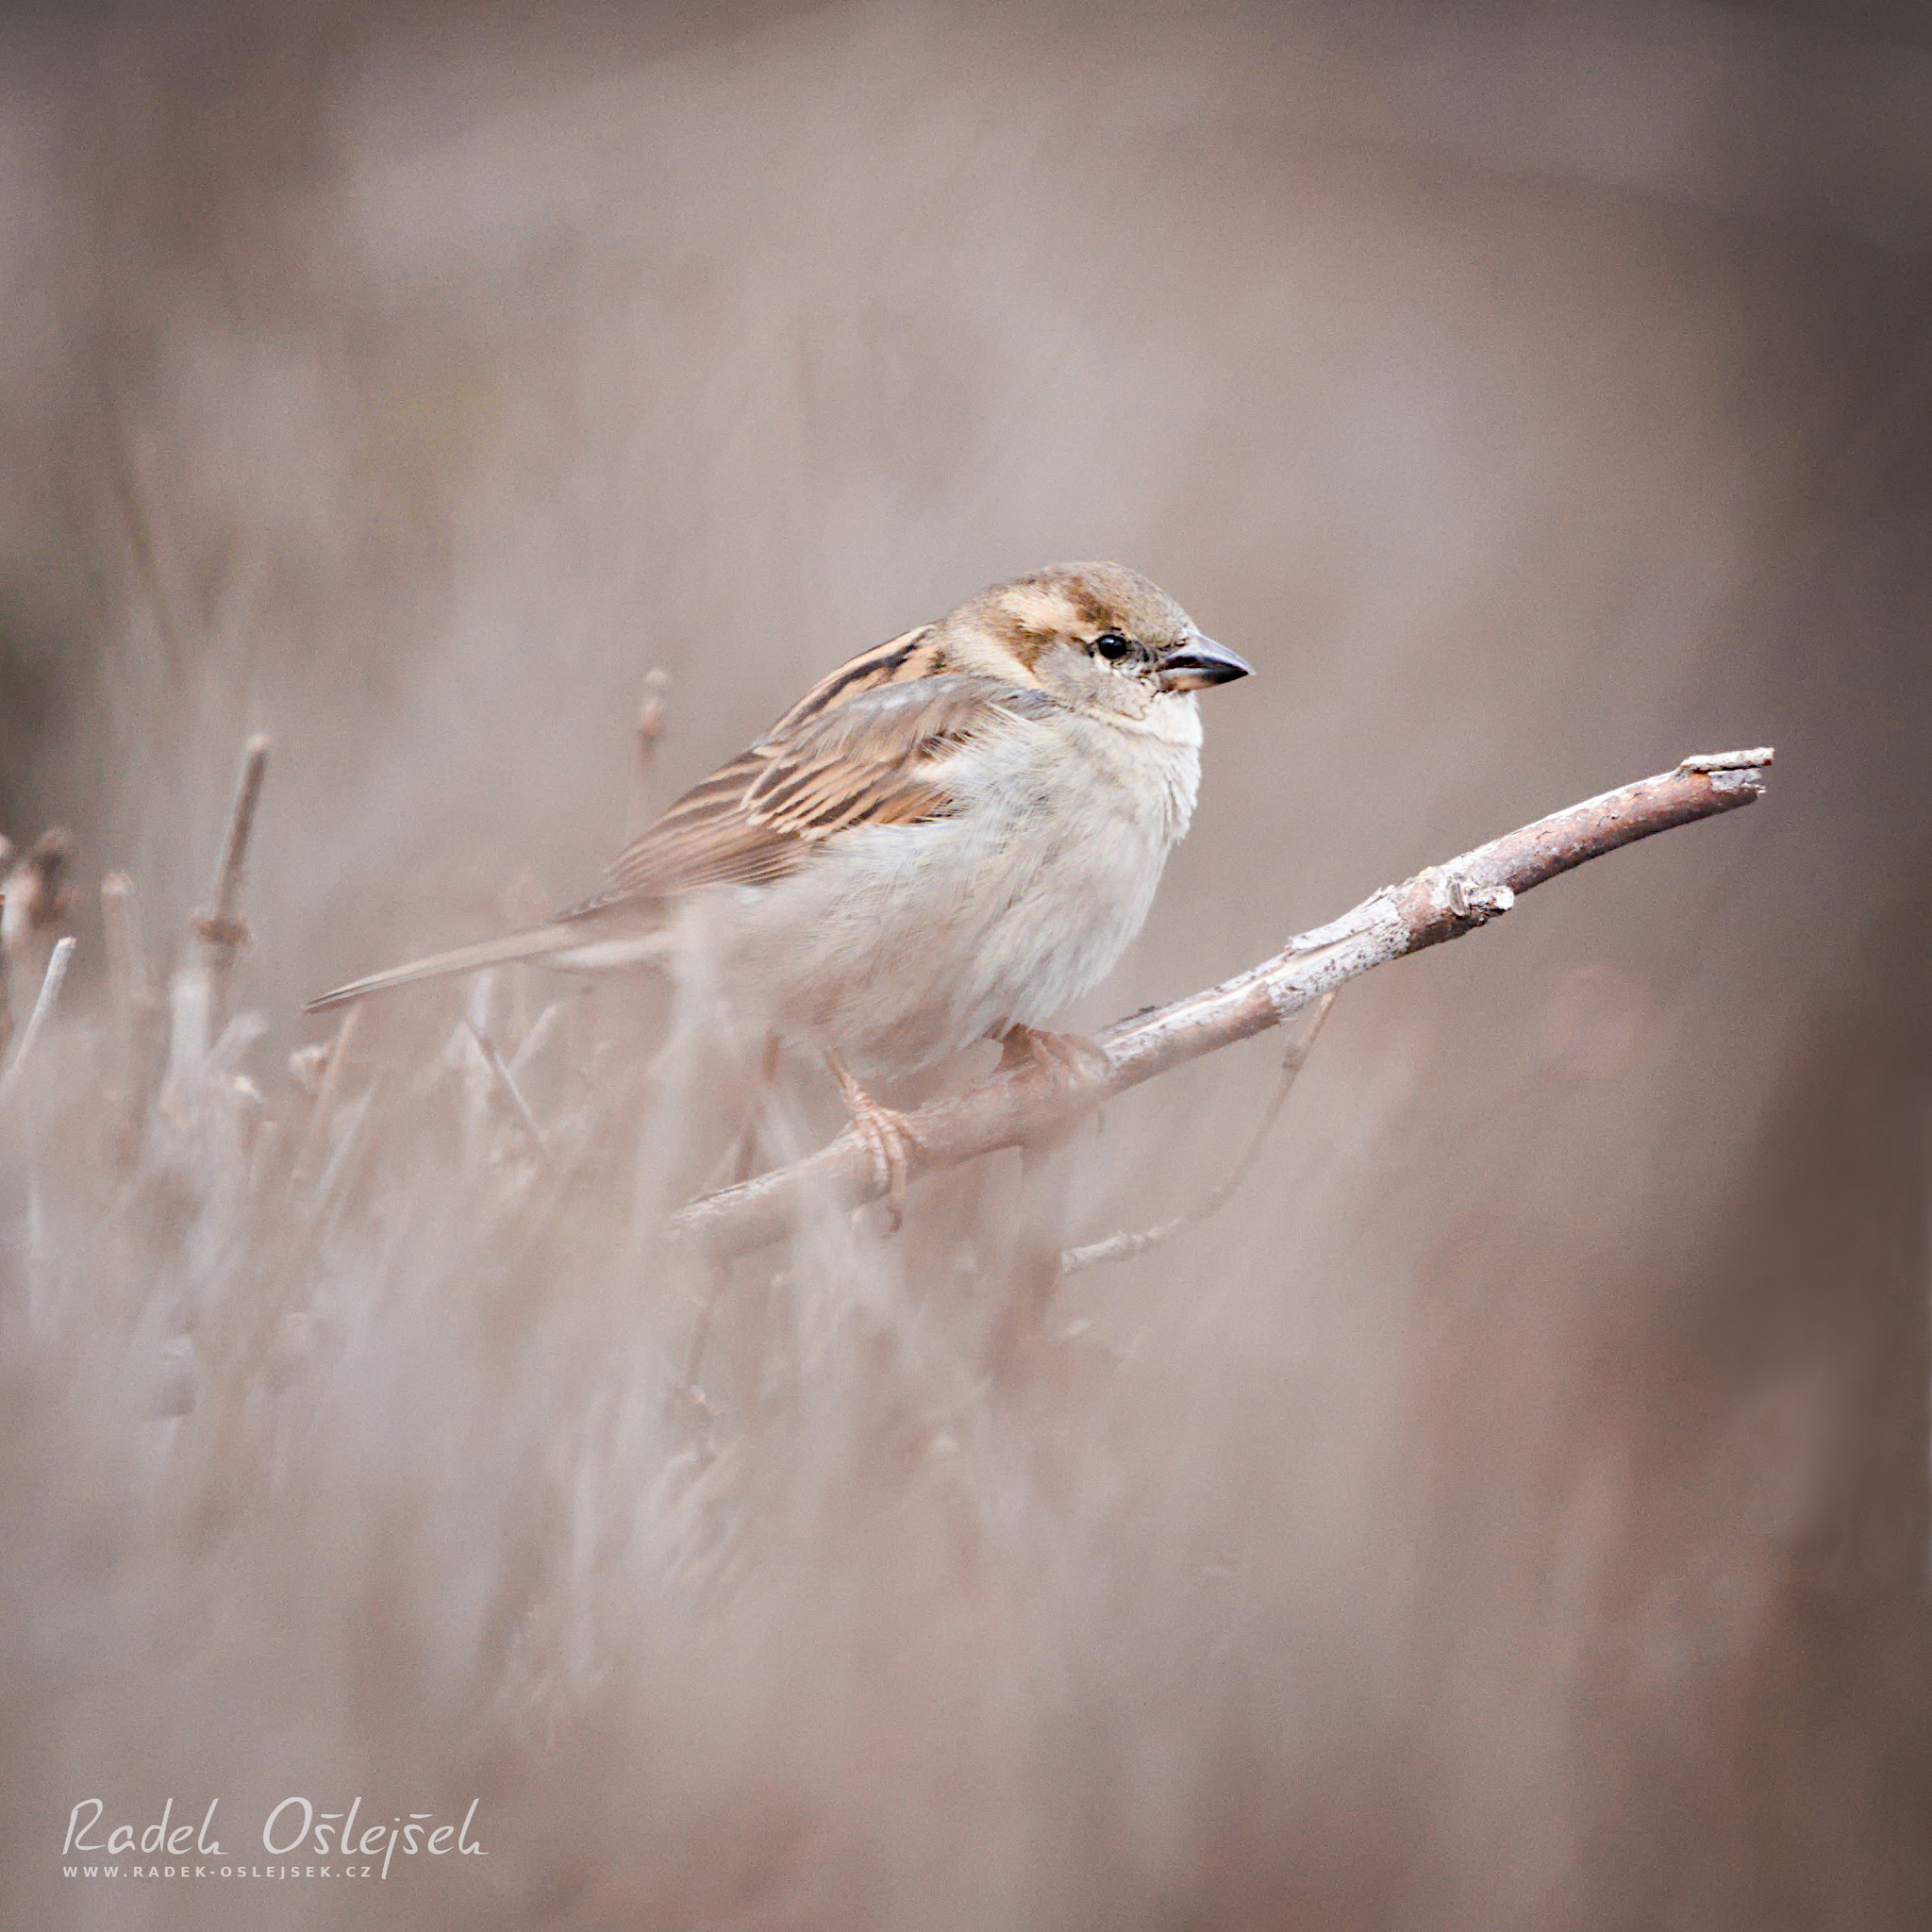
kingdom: Animalia
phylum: Chordata
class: Aves
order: Passeriformes
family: Passeridae
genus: Passer
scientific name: Passer domesticus
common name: House sparrow
